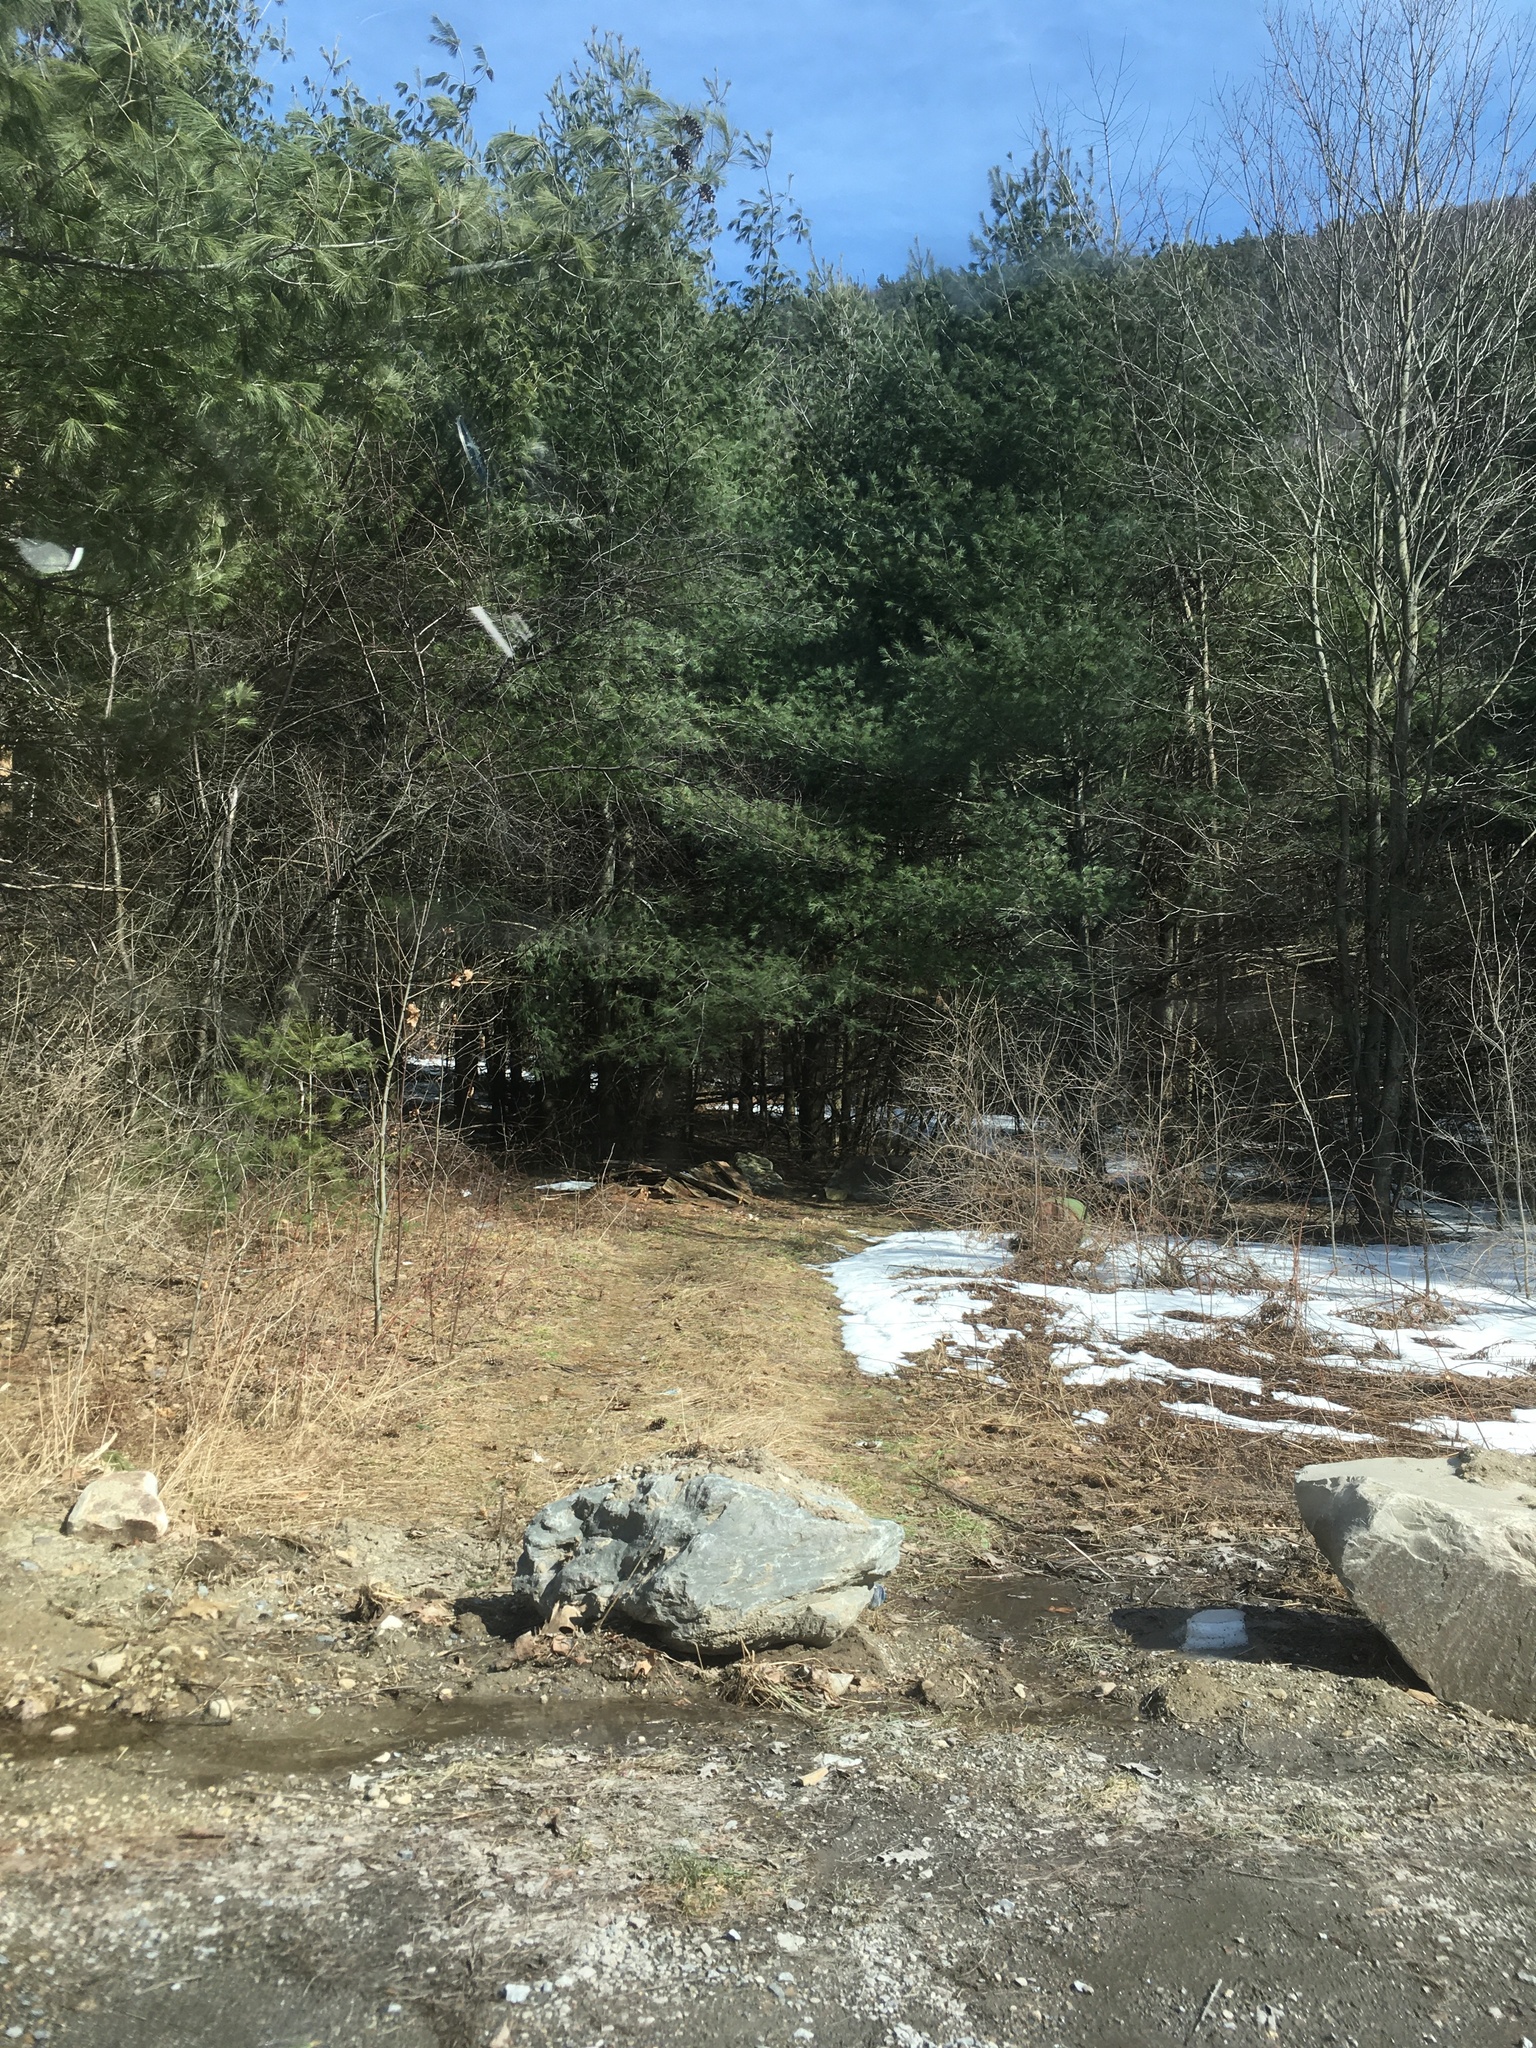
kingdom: Plantae
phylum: Tracheophyta
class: Pinopsida
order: Pinales
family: Pinaceae
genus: Pinus
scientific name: Pinus strobus
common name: Weymouth pine
